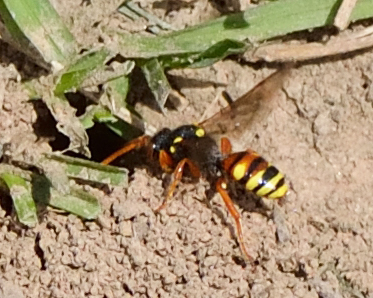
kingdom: Animalia
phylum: Arthropoda
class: Insecta
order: Hymenoptera
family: Apidae
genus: Nomada
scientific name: Nomada fucata
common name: Painted nomad bee
